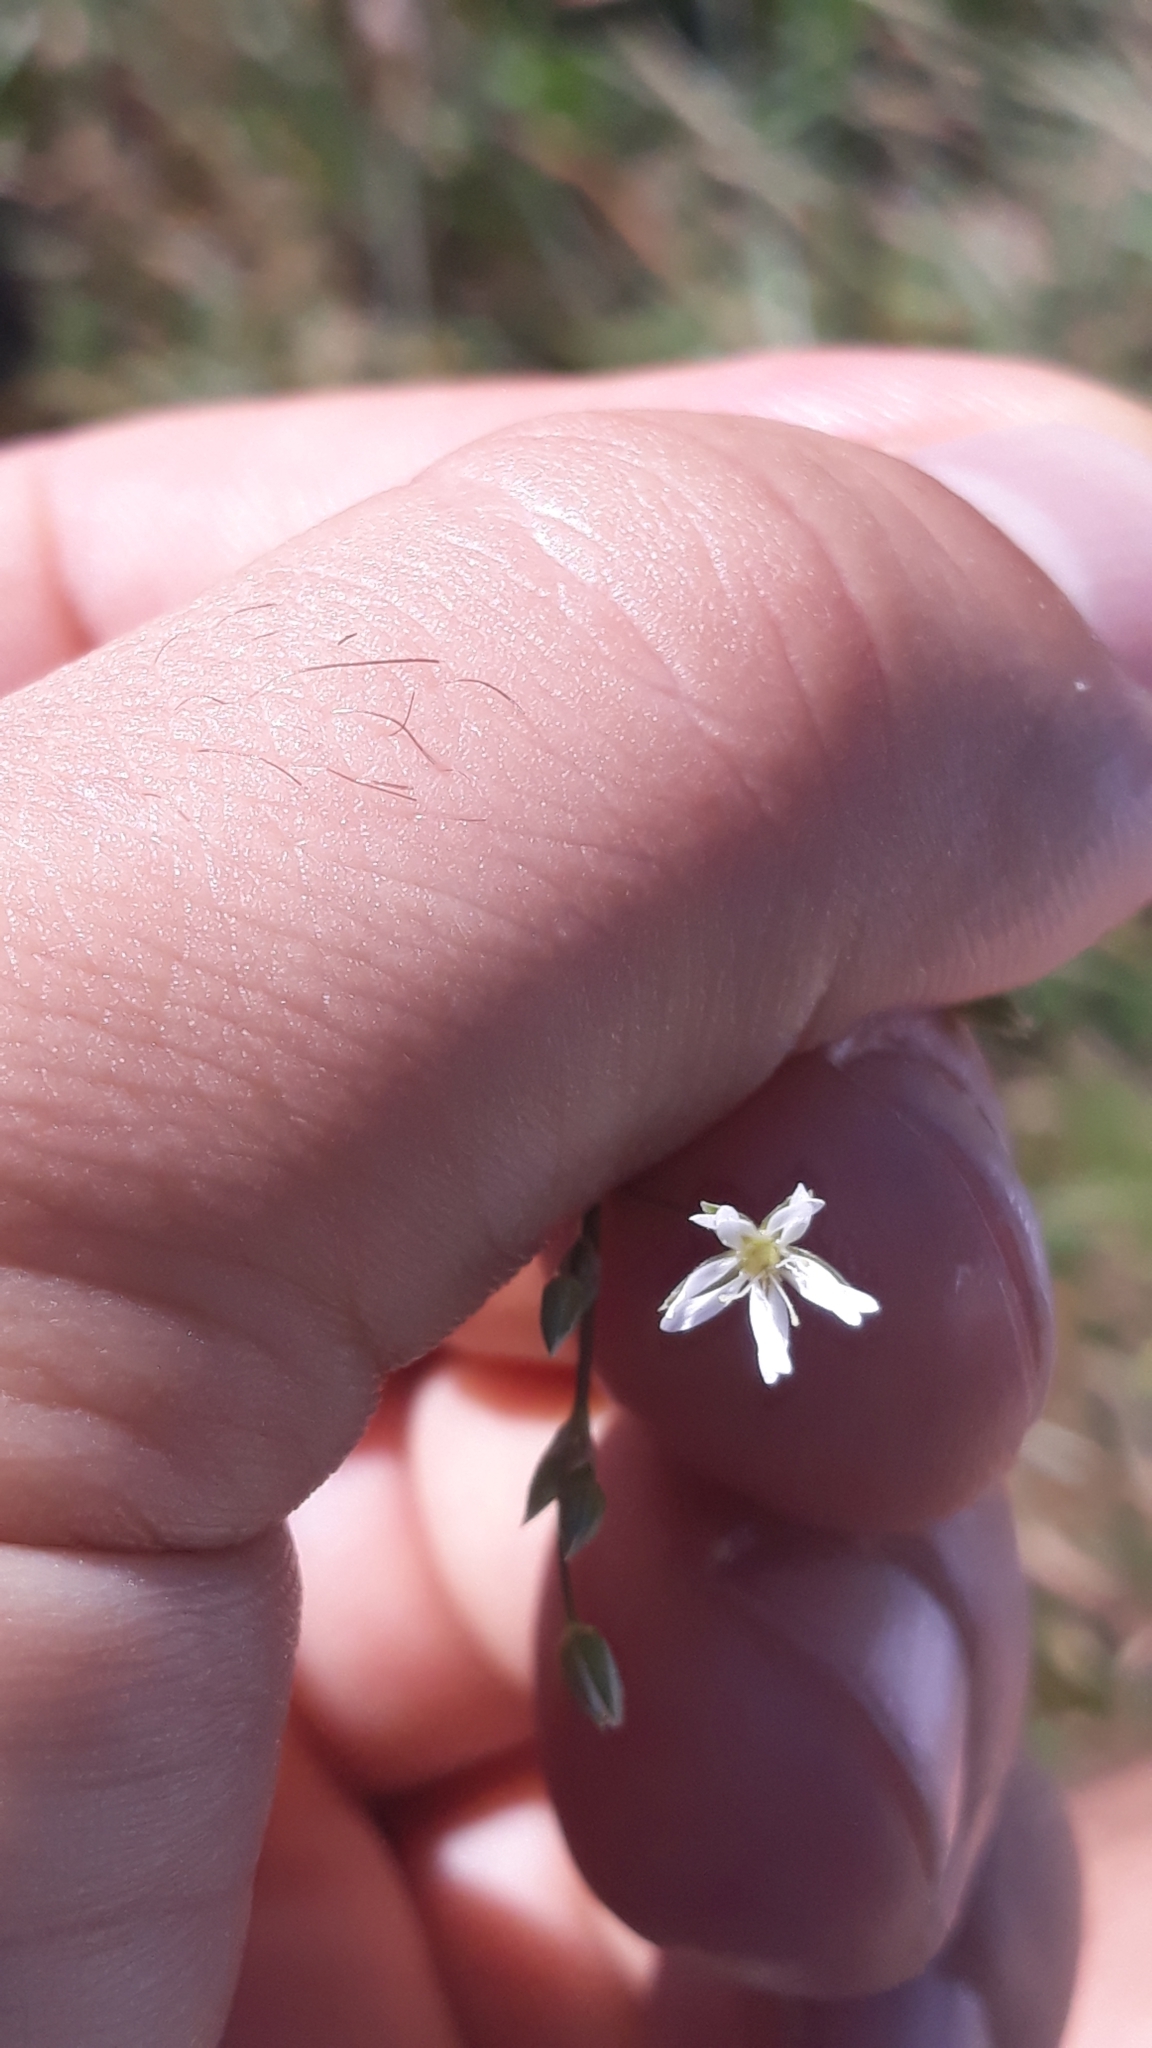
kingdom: Plantae
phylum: Tracheophyta
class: Magnoliopsida
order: Caryophyllales
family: Caryophyllaceae
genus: Stellaria
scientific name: Stellaria graminea
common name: Grass-like starwort
